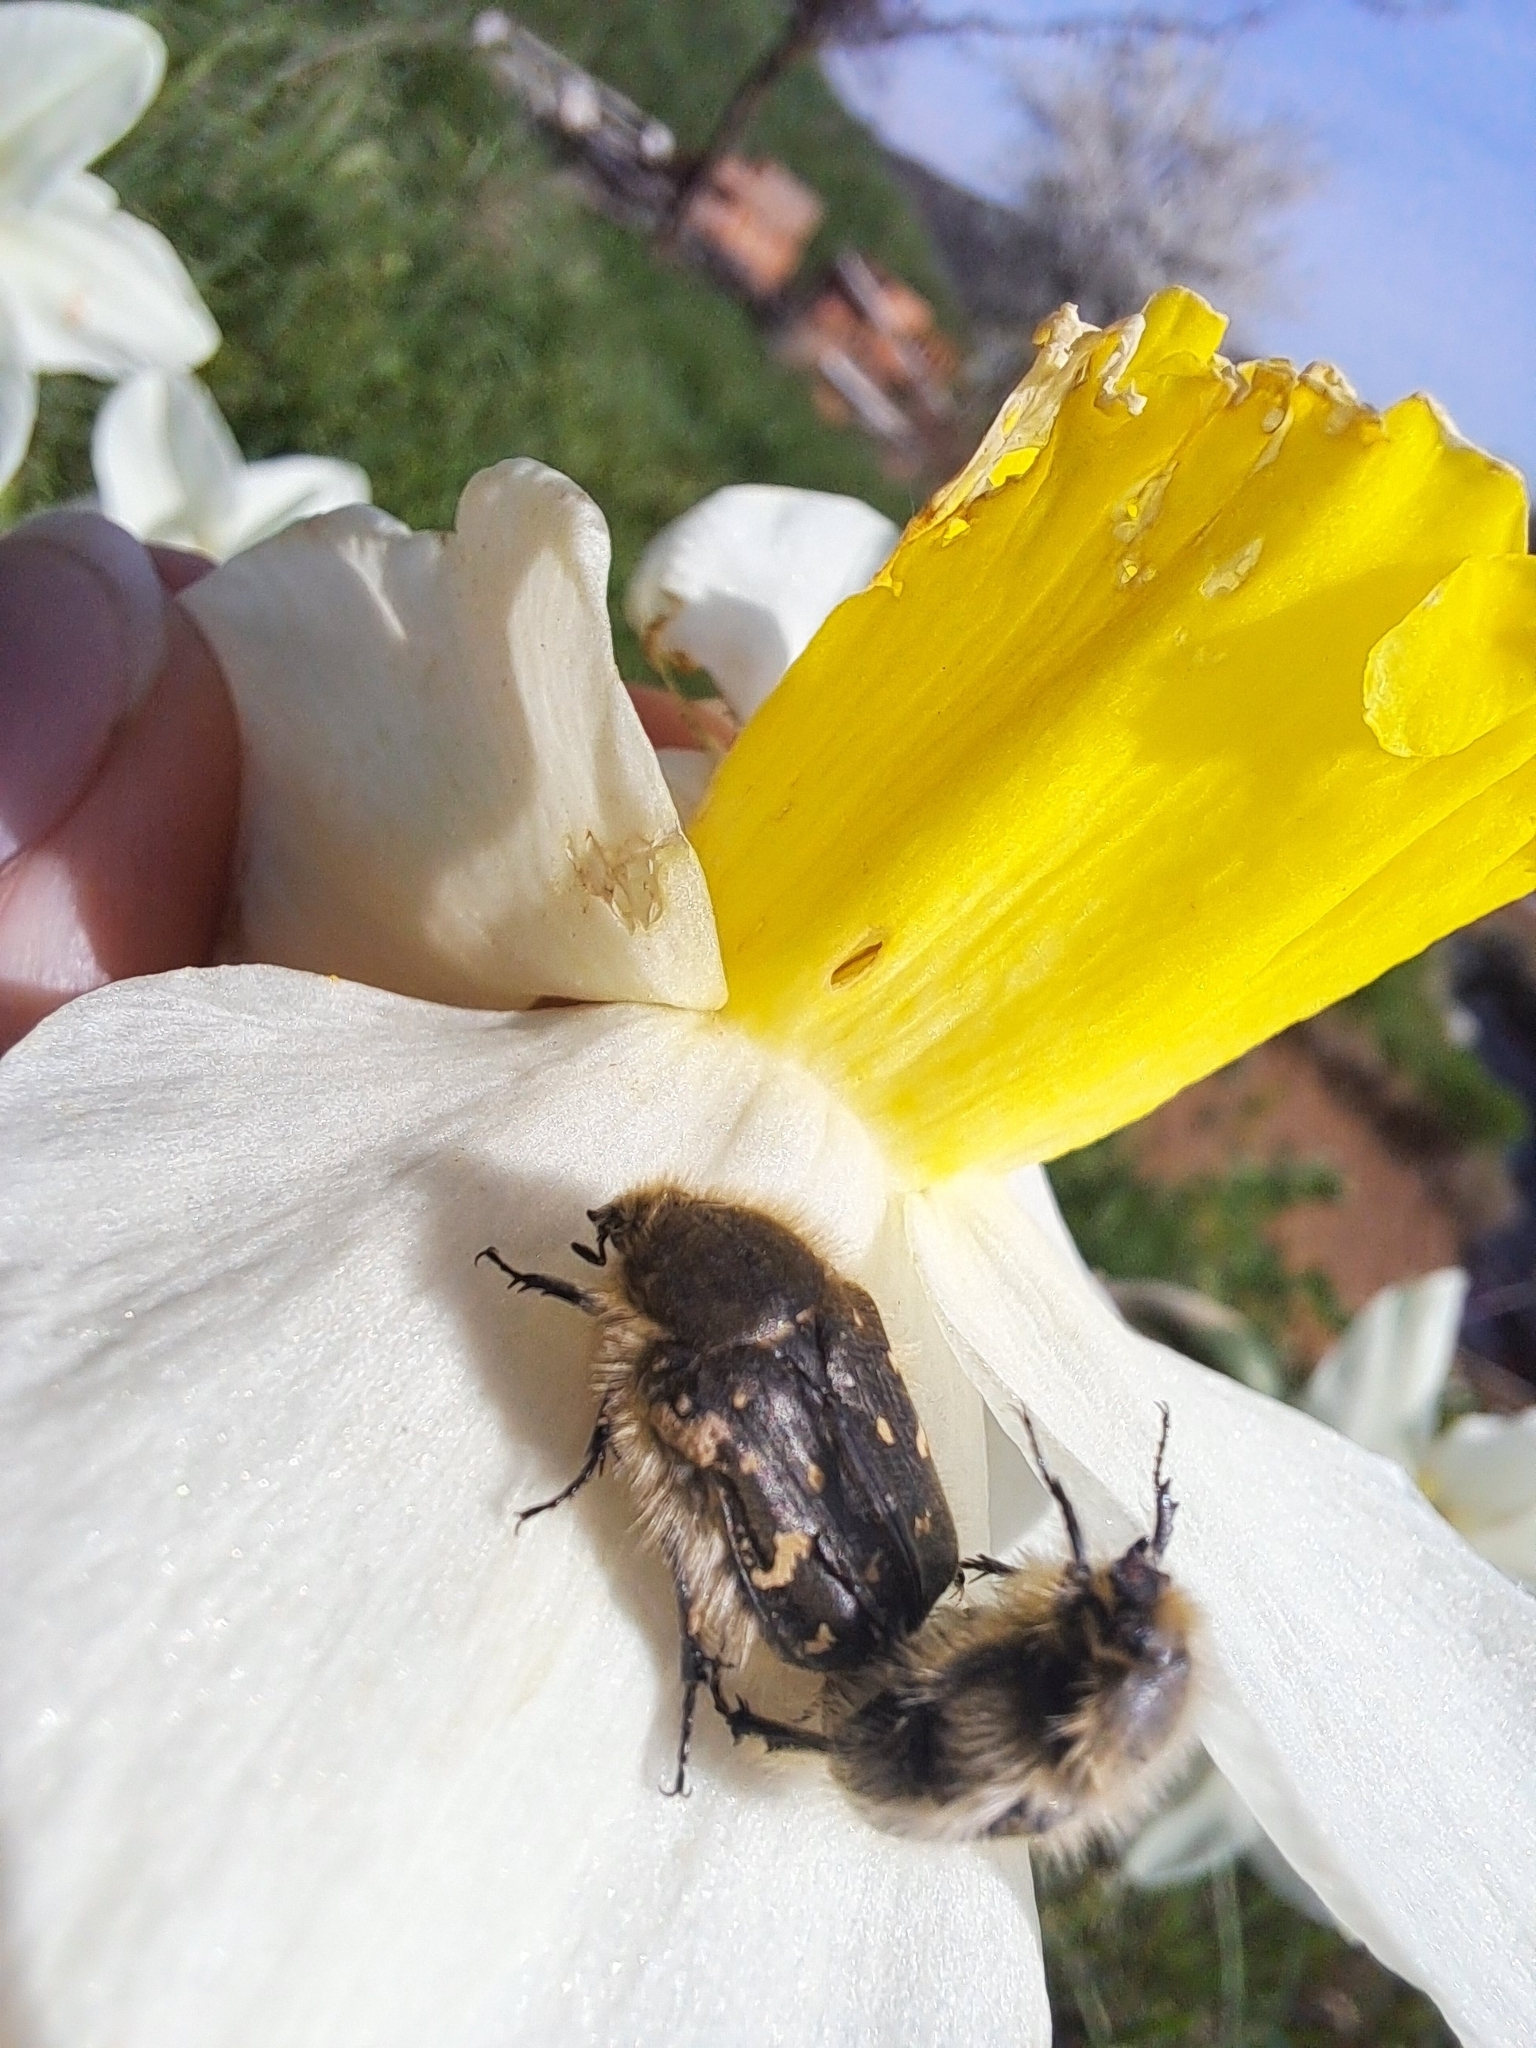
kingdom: Animalia
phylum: Arthropoda
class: Insecta
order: Coleoptera
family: Scarabaeidae
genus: Tropinota
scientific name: Tropinota hirta
